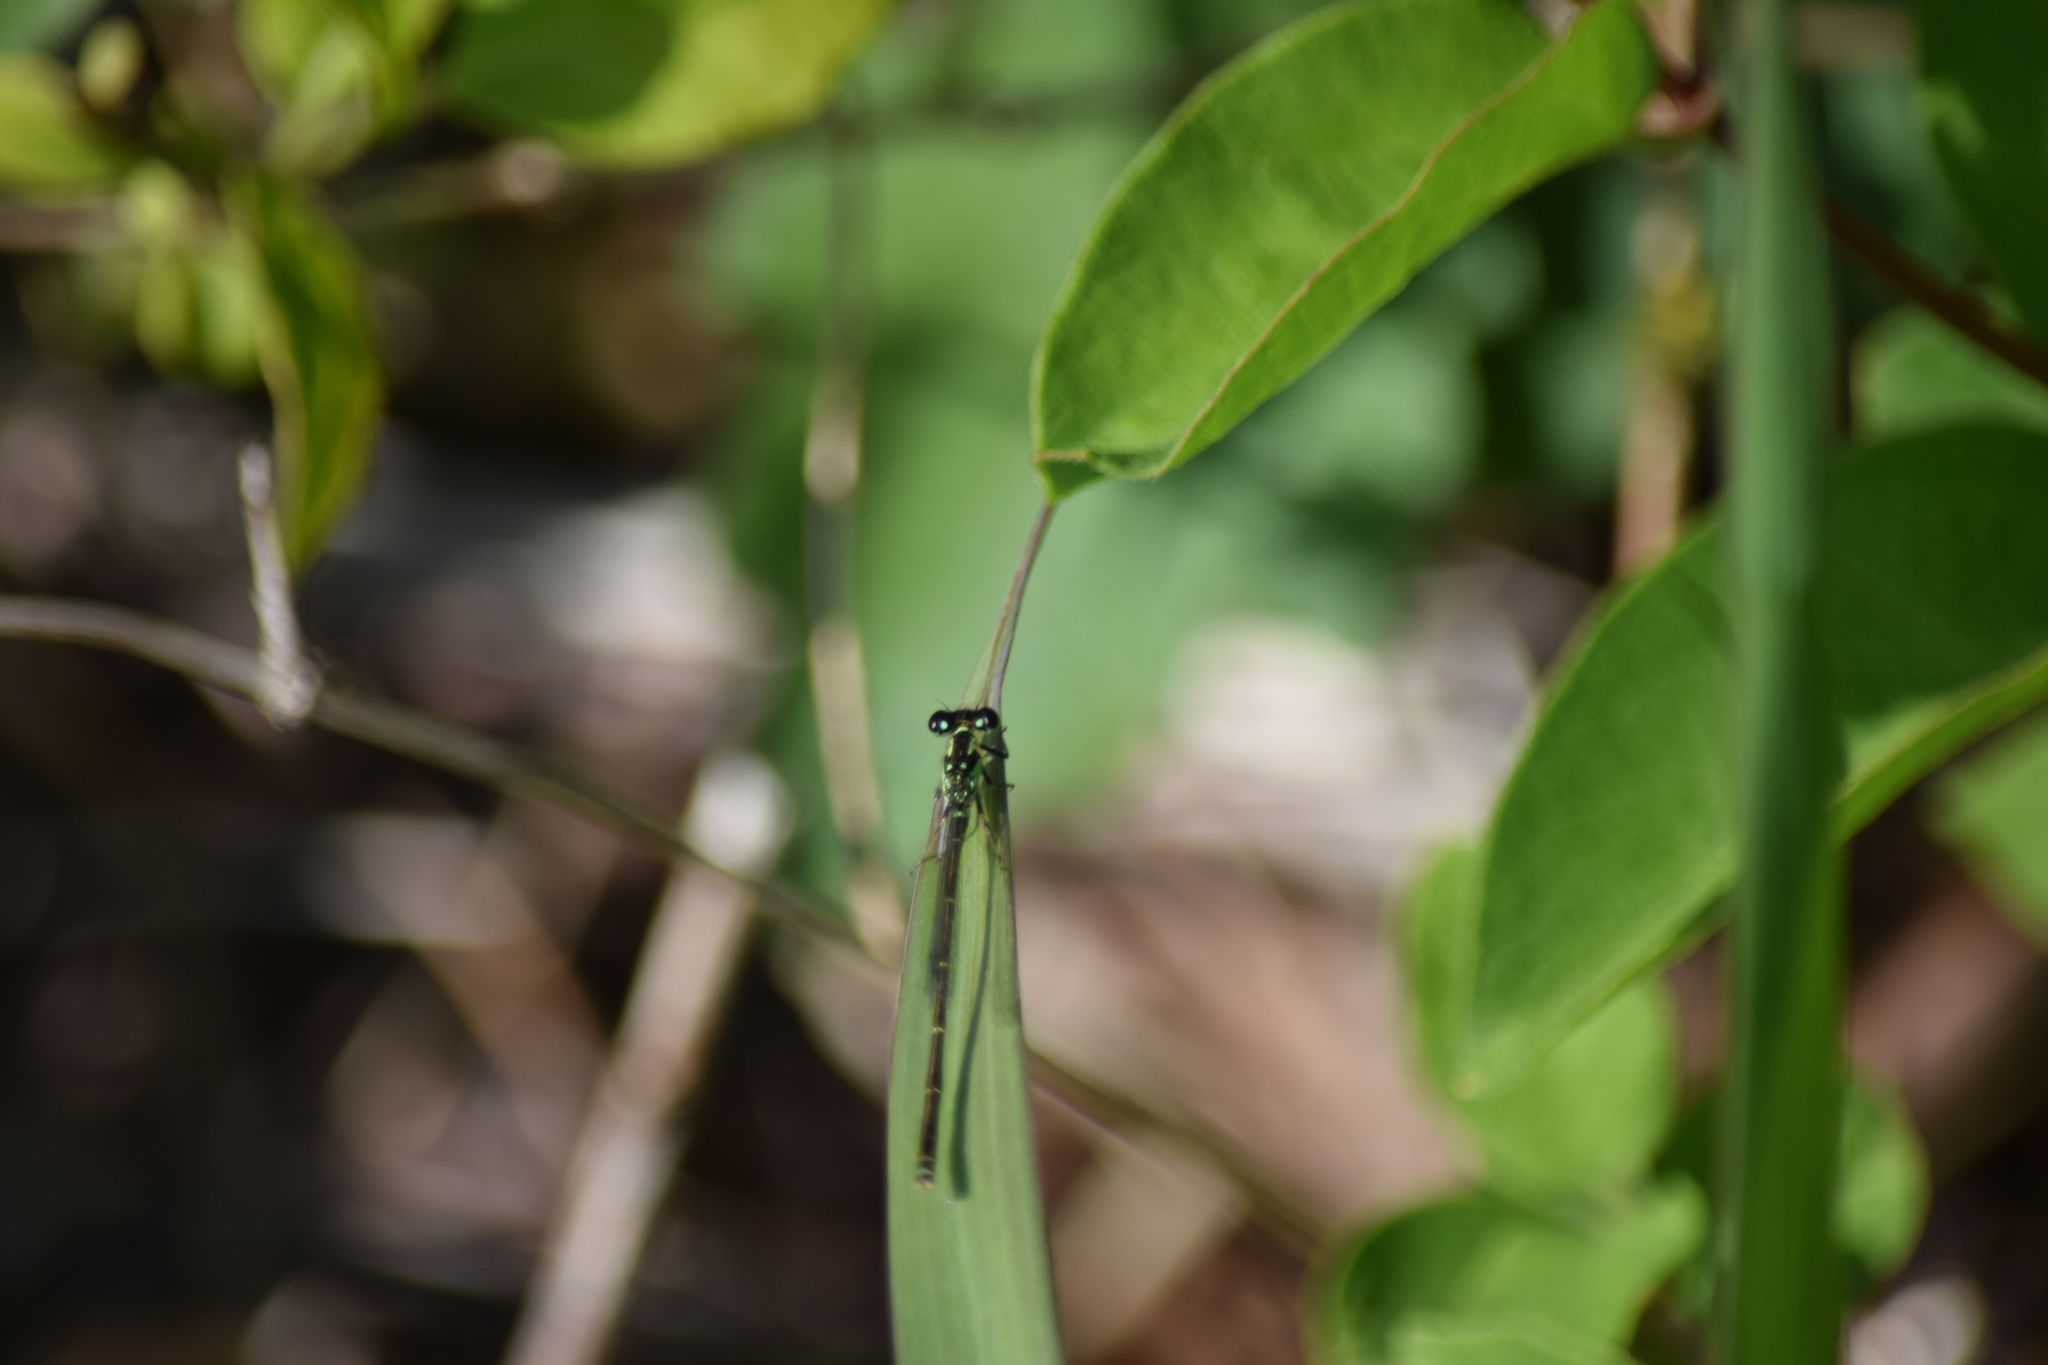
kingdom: Animalia
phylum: Arthropoda
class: Insecta
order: Odonata
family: Coenagrionidae
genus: Ischnura
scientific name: Ischnura posita
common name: Fragile forktail
